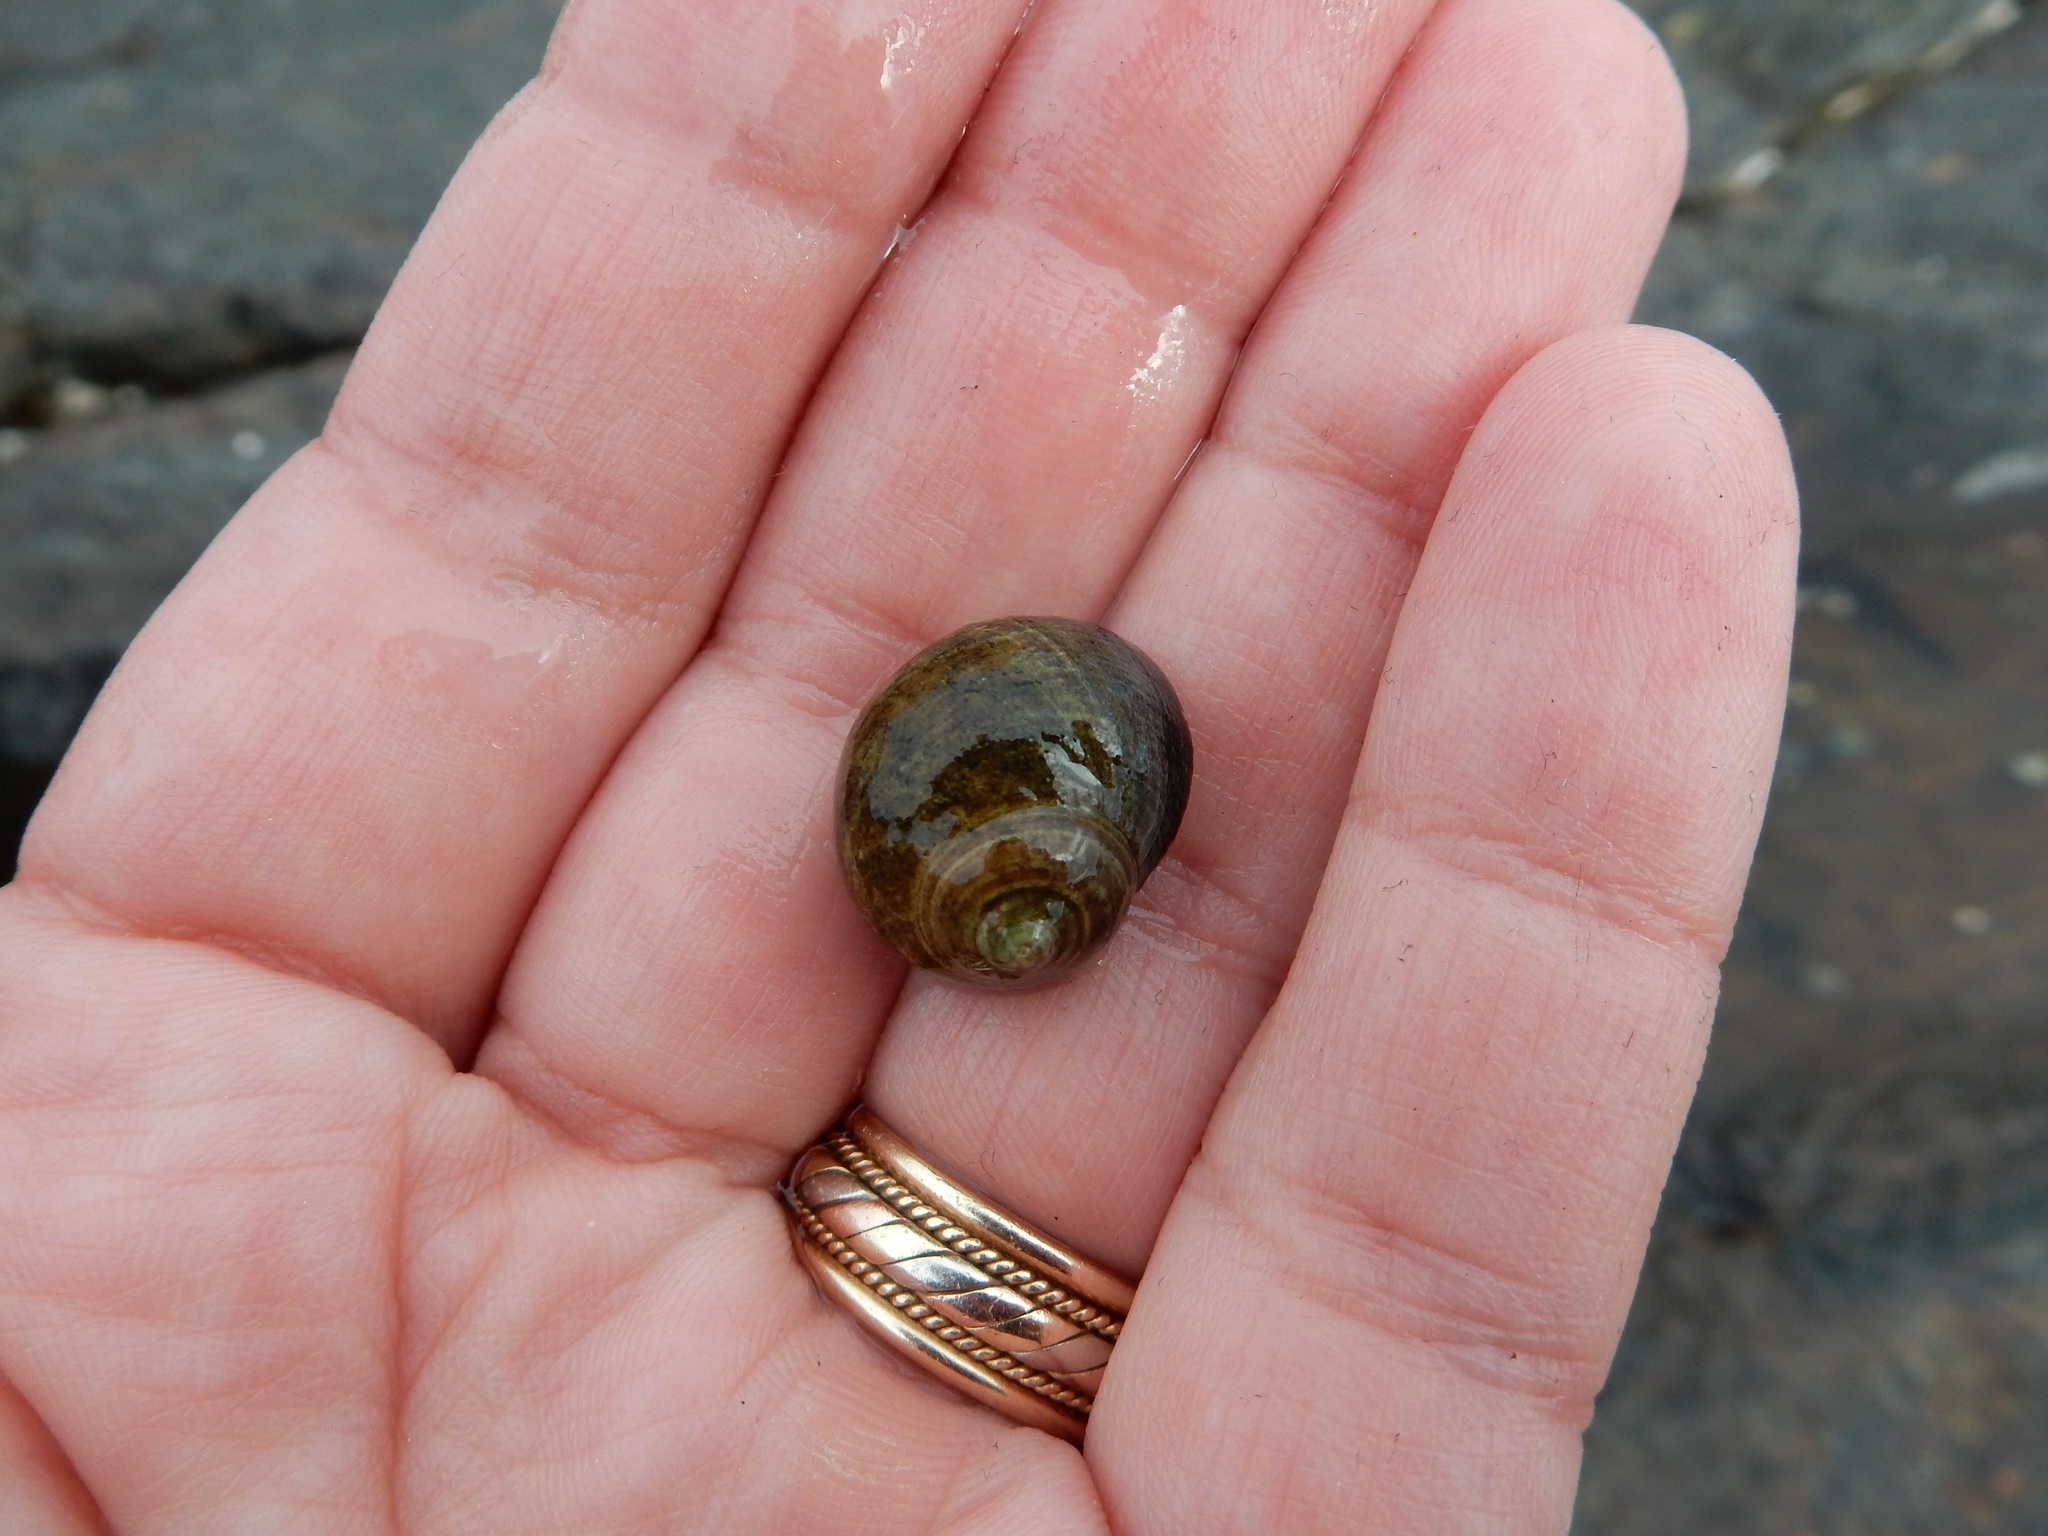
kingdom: Animalia
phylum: Mollusca
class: Gastropoda
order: Littorinimorpha
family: Littorinidae
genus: Littorina
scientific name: Littorina littorea
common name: Common periwinkle
